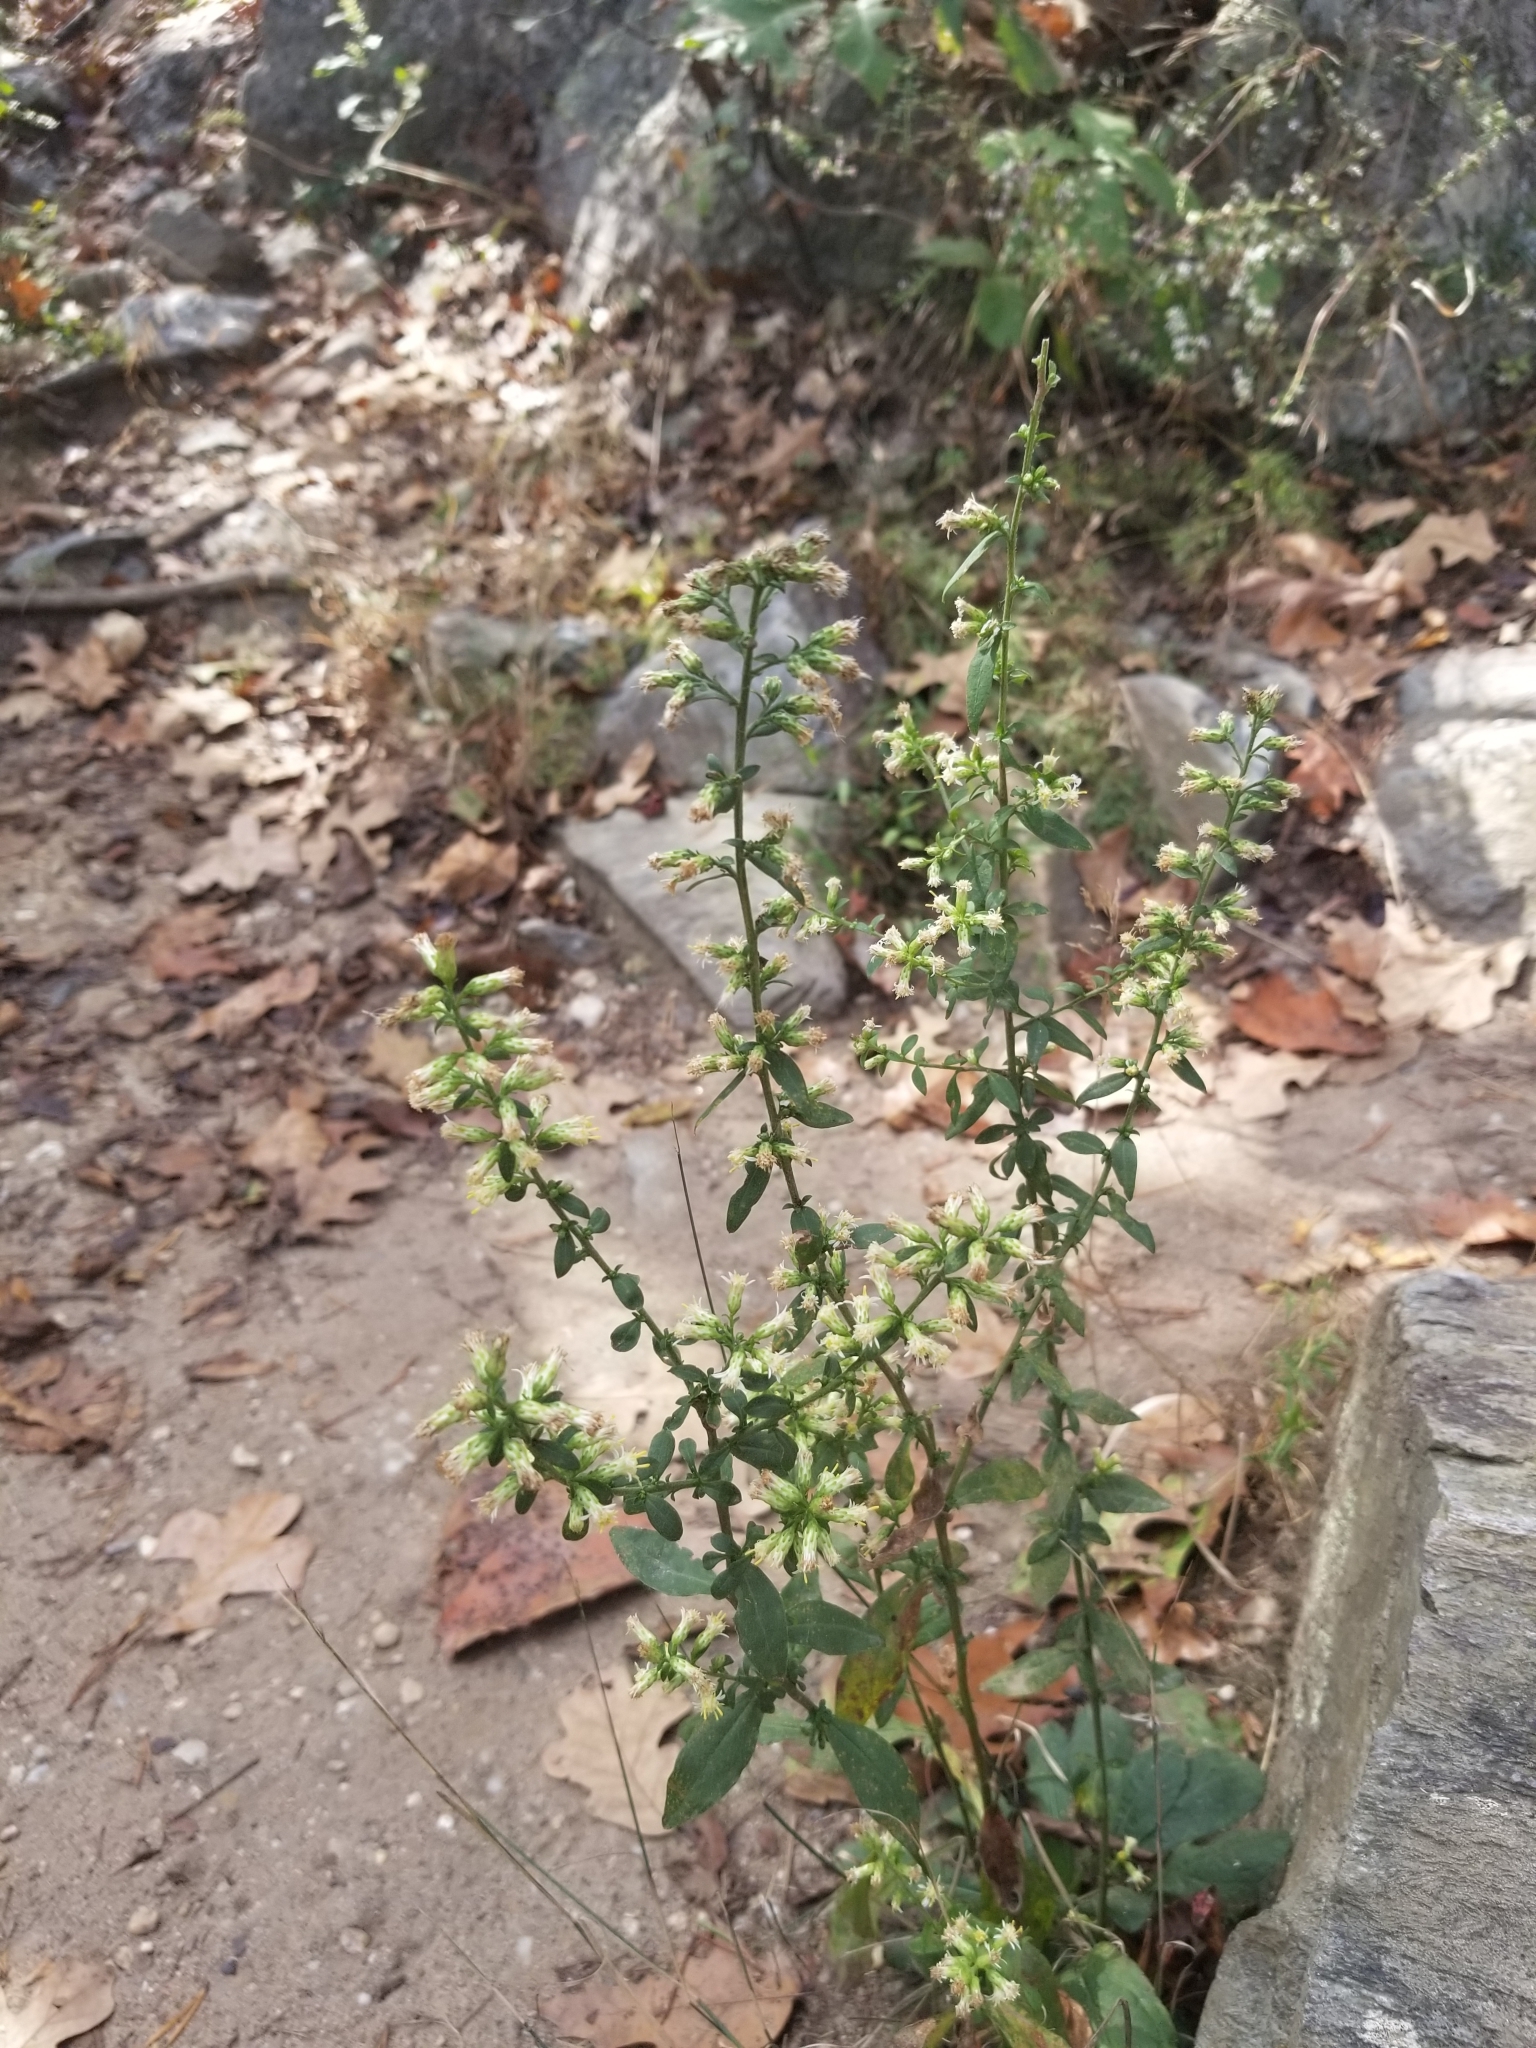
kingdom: Plantae
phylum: Tracheophyta
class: Magnoliopsida
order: Asterales
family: Asteraceae
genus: Solidago
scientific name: Solidago bicolor
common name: Silverrod
